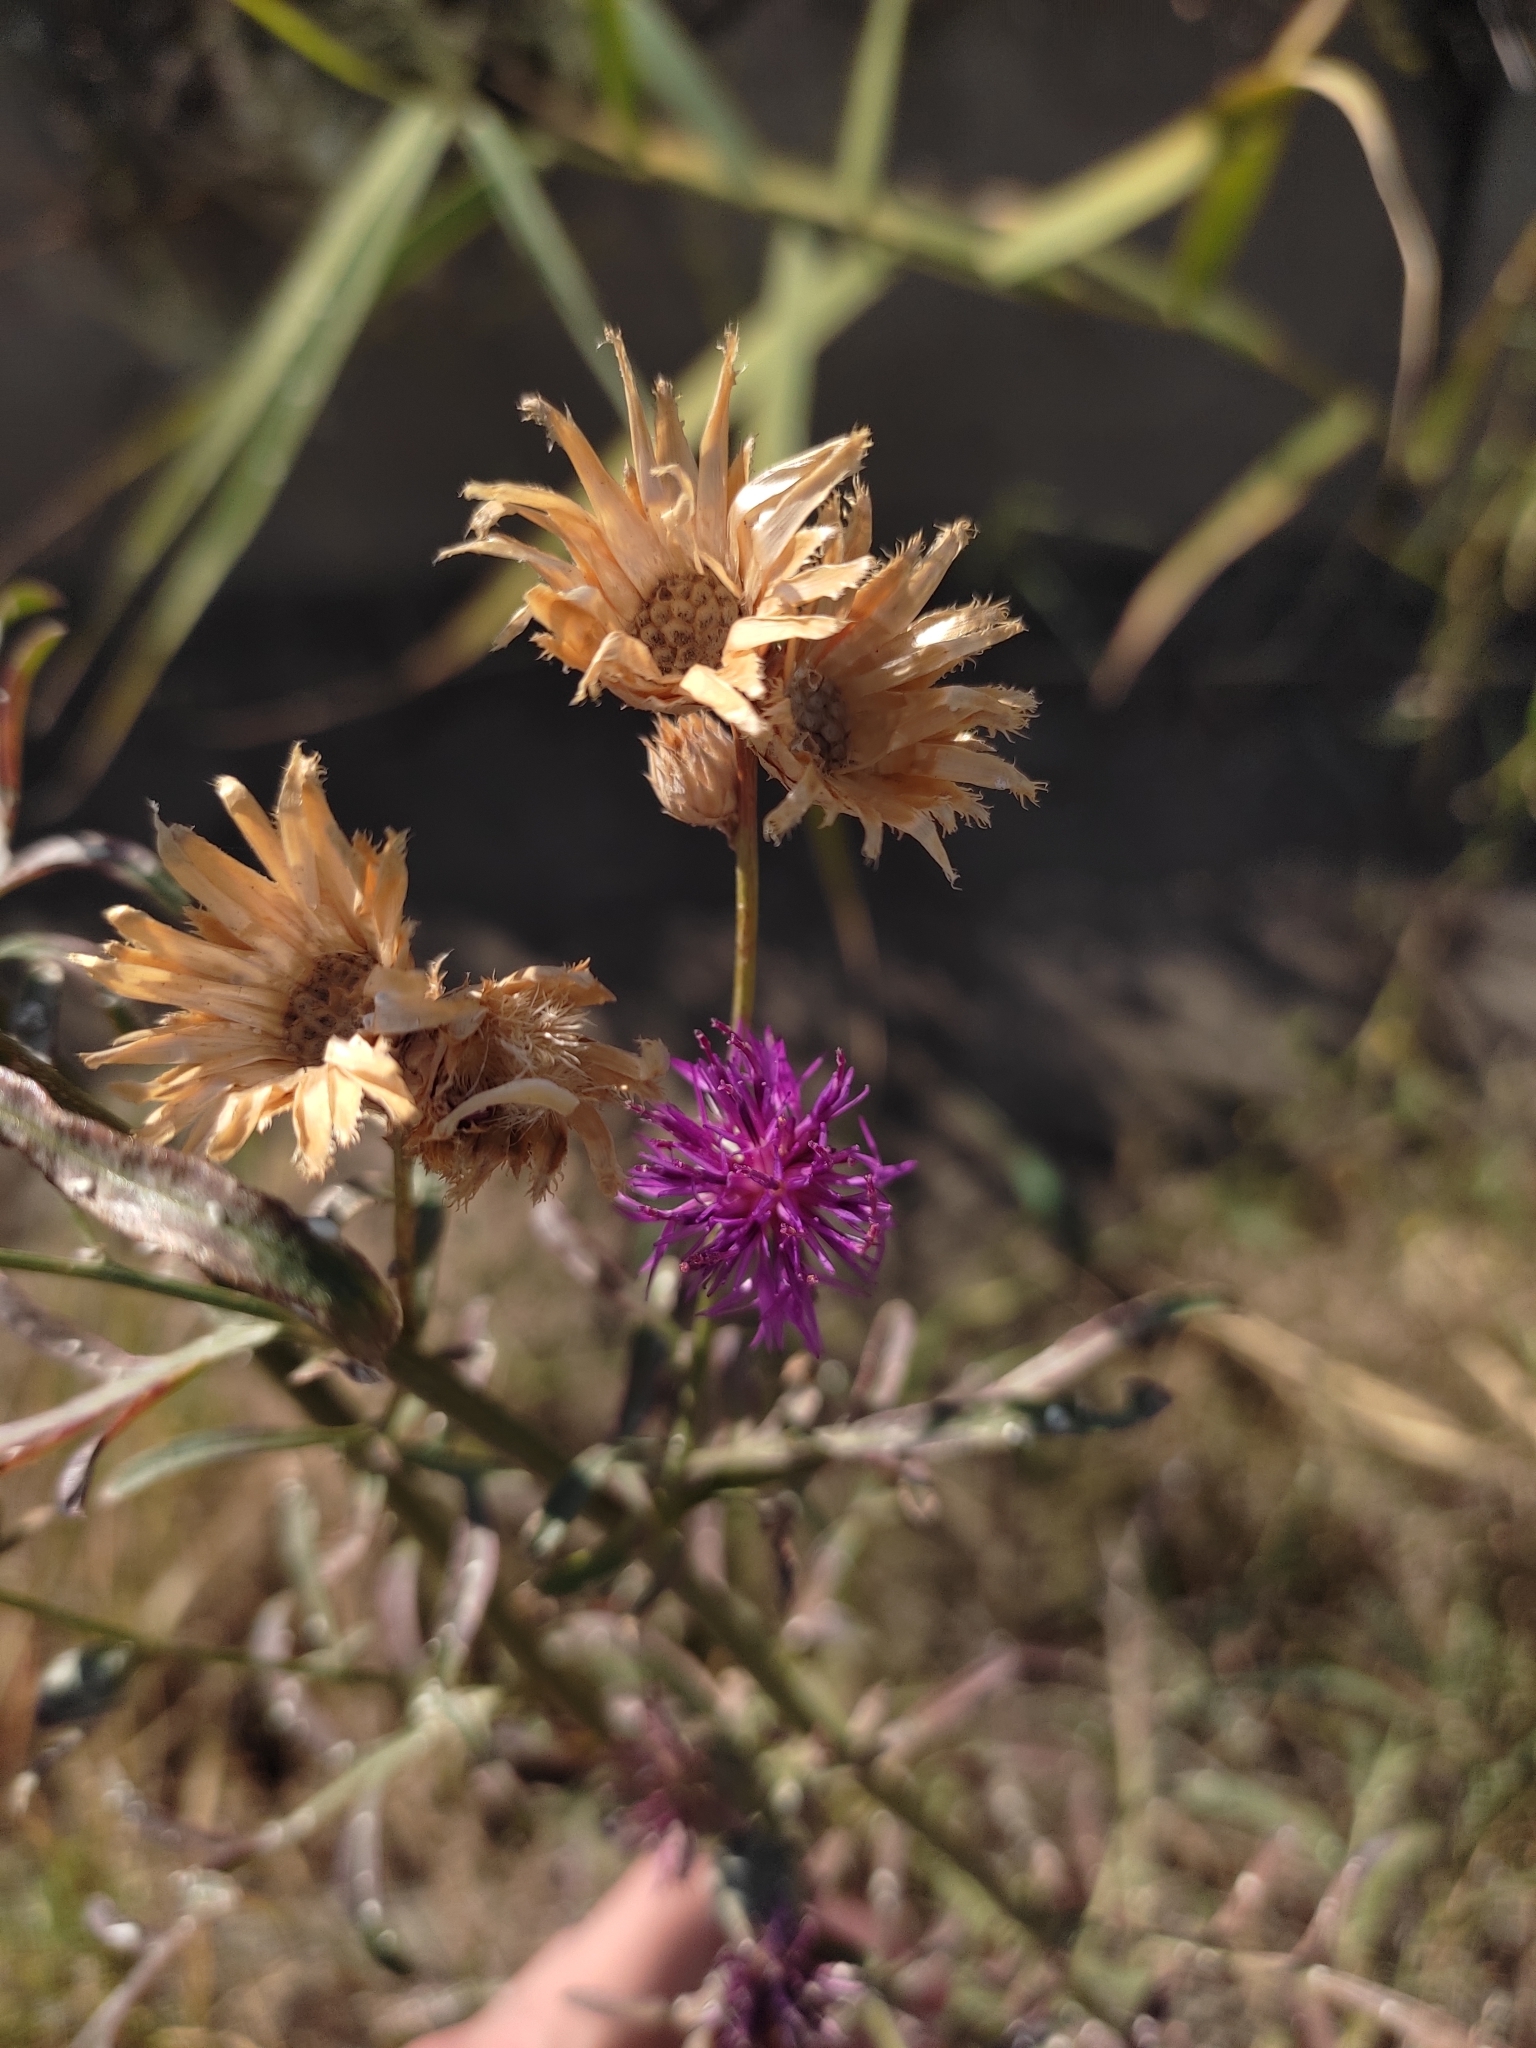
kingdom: Plantae
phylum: Tracheophyta
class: Magnoliopsida
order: Asterales
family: Asteraceae
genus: Centaurea
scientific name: Centaurea adpressa
